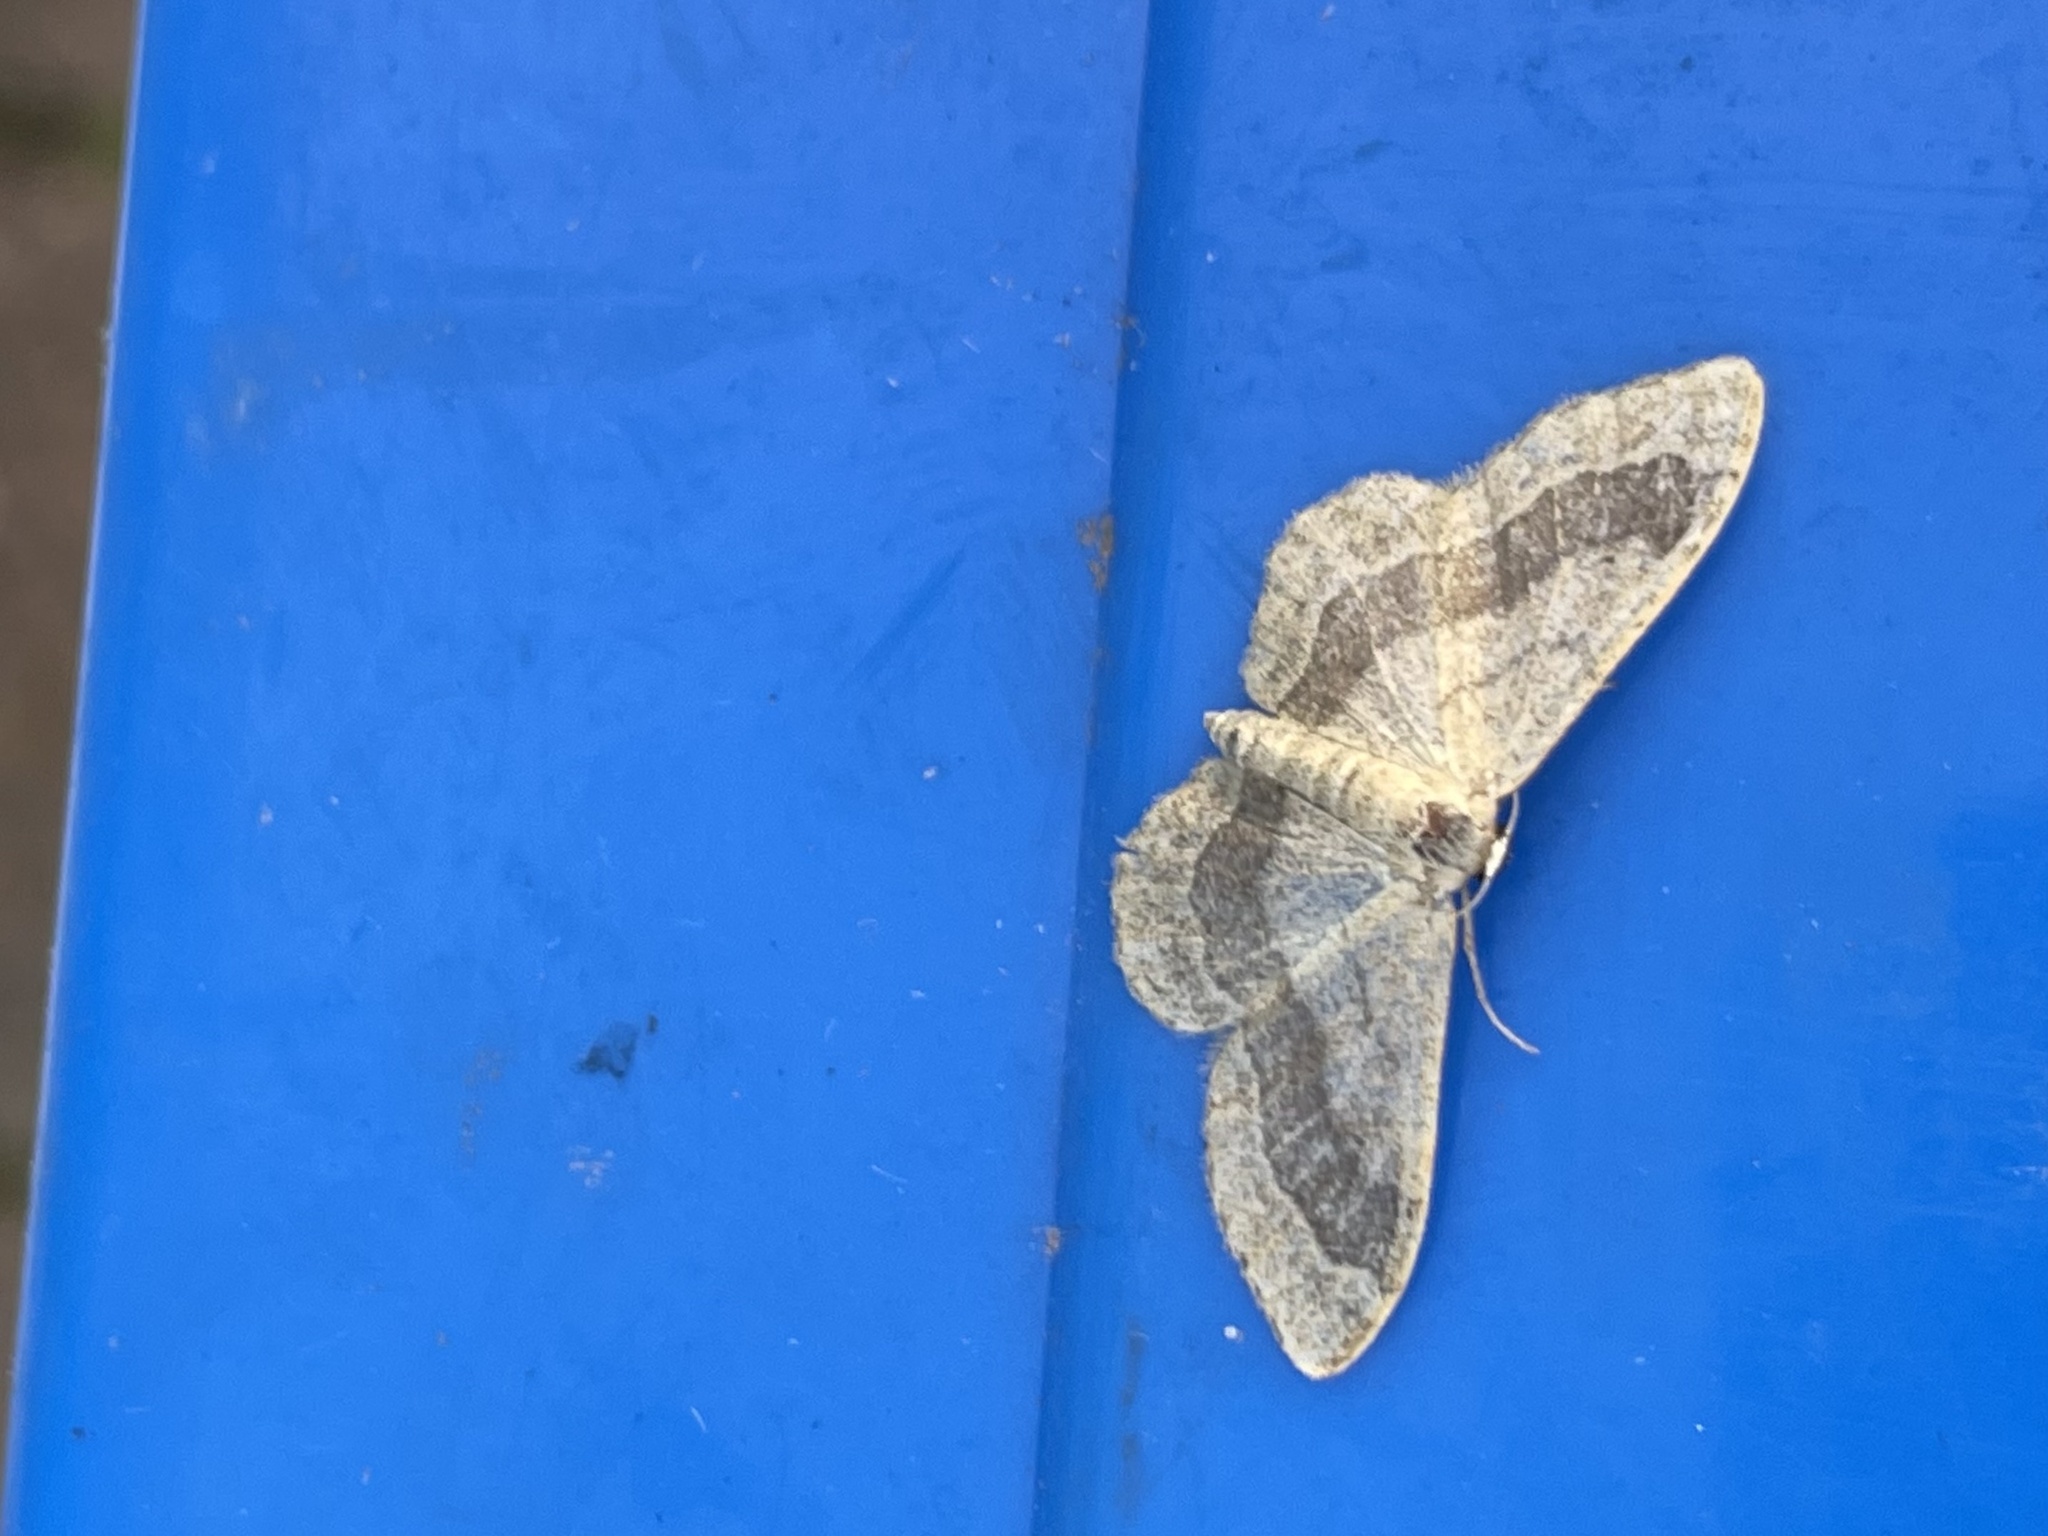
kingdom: Animalia
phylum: Arthropoda
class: Insecta
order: Lepidoptera
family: Geometridae
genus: Idaea
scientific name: Idaea aversata
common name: Riband wave
